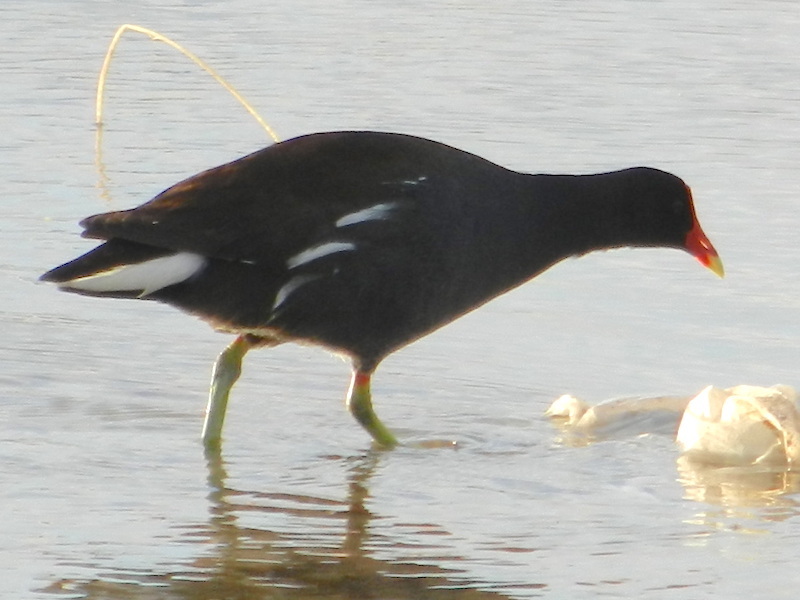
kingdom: Animalia
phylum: Chordata
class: Aves
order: Gruiformes
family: Rallidae
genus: Gallinula
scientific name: Gallinula chloropus
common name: Common moorhen
